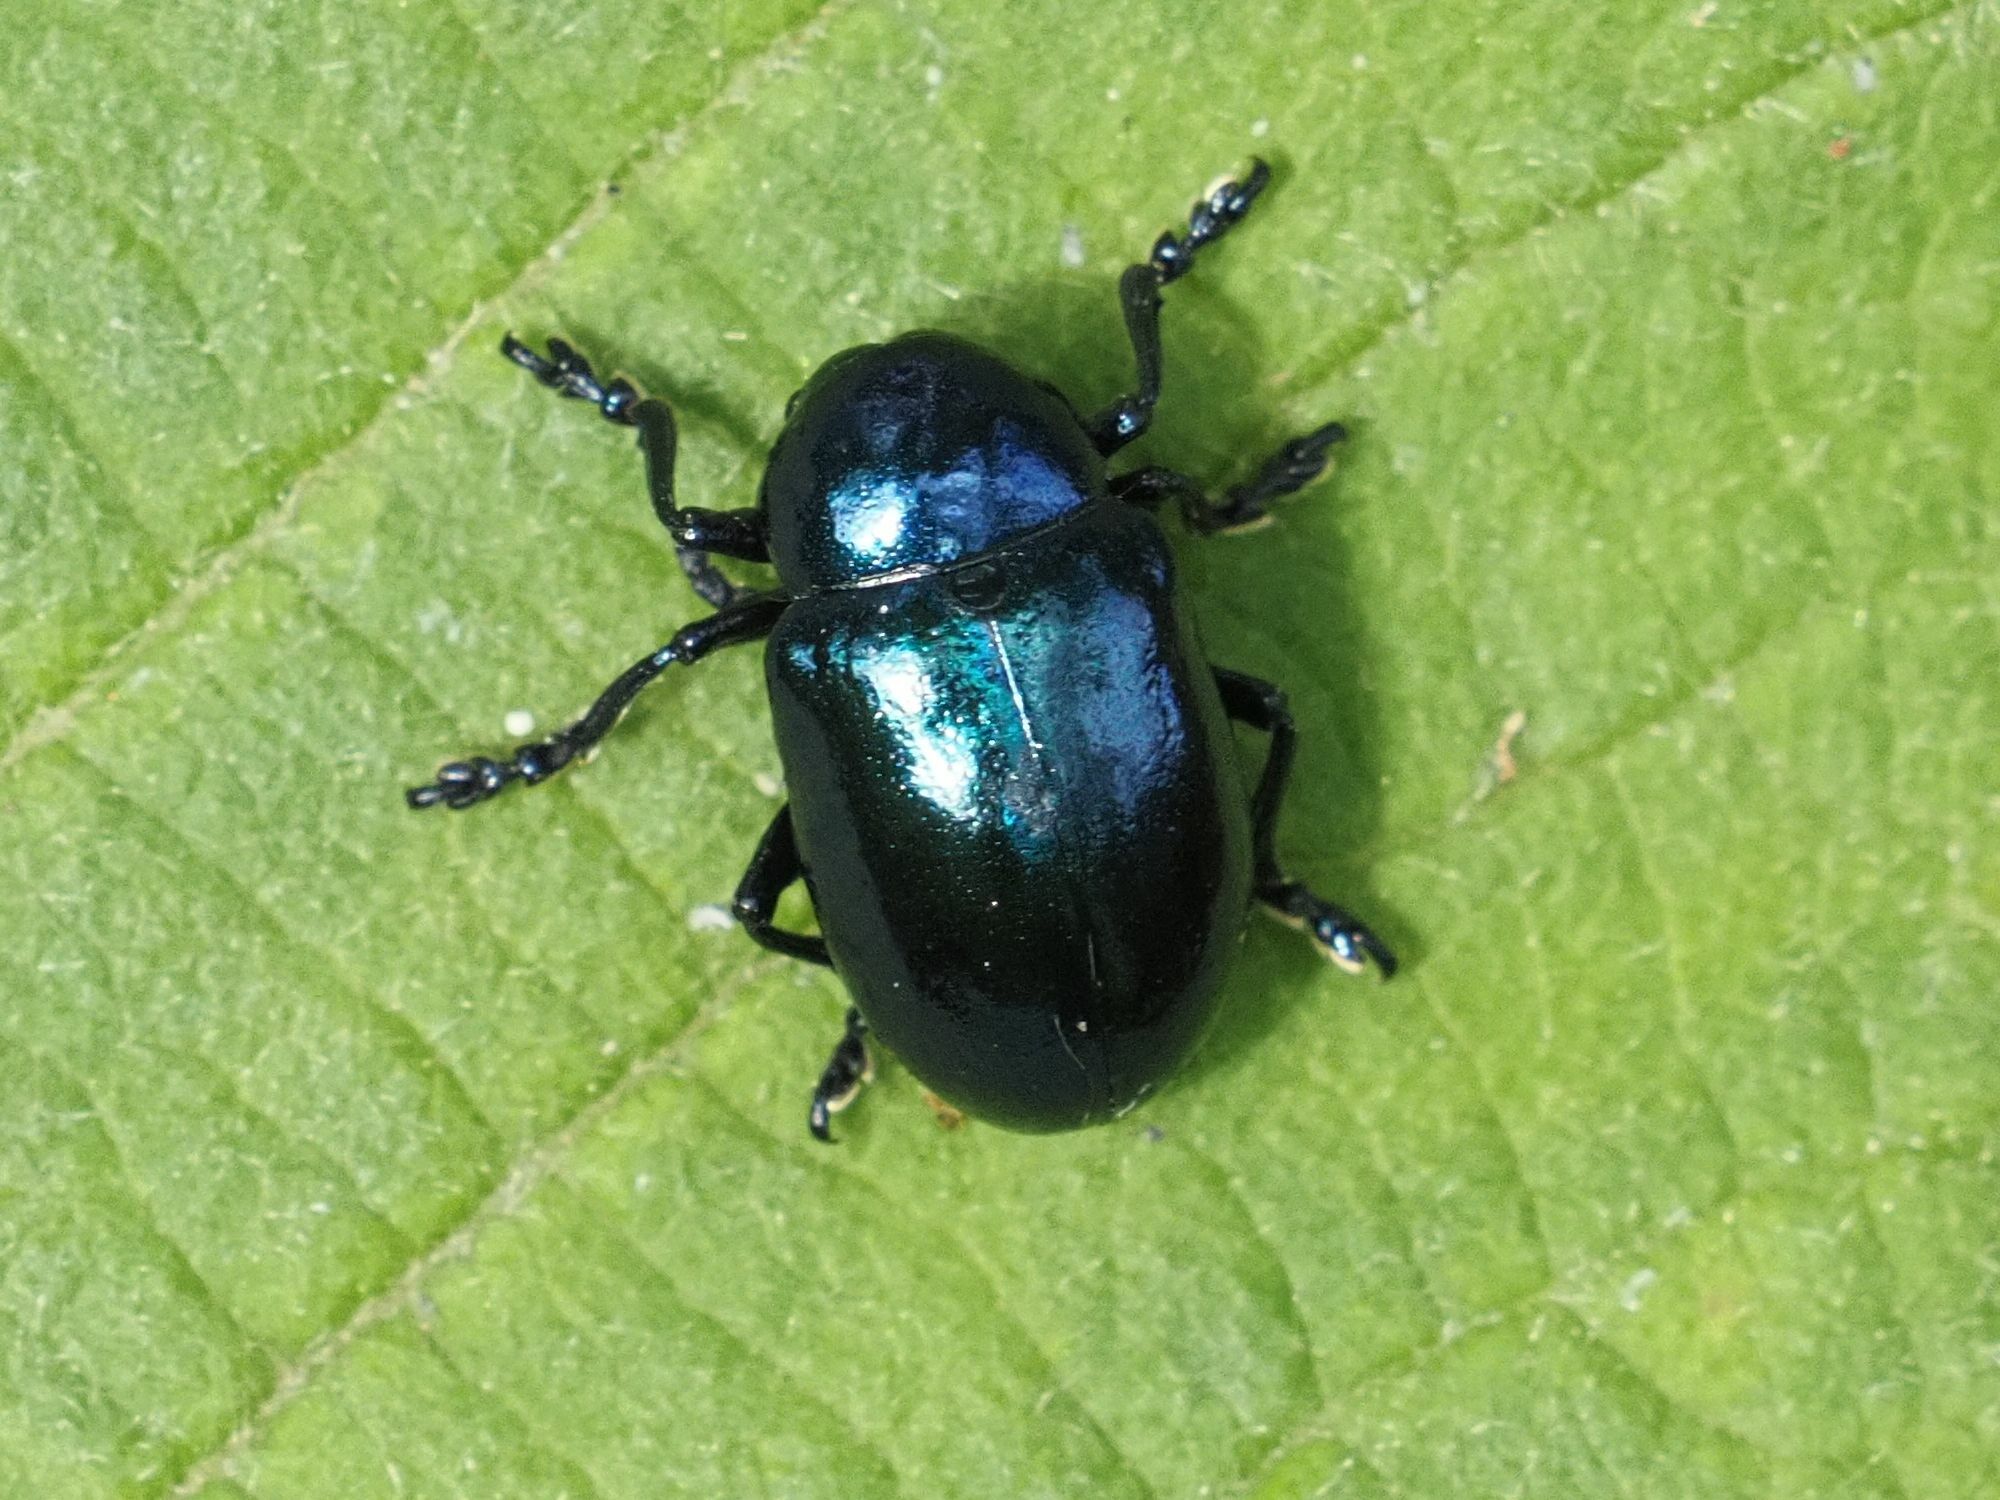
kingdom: Animalia
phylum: Arthropoda
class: Insecta
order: Coleoptera
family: Chrysomelidae
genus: Chrysochus
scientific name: Chrysochus asclepiadeus
